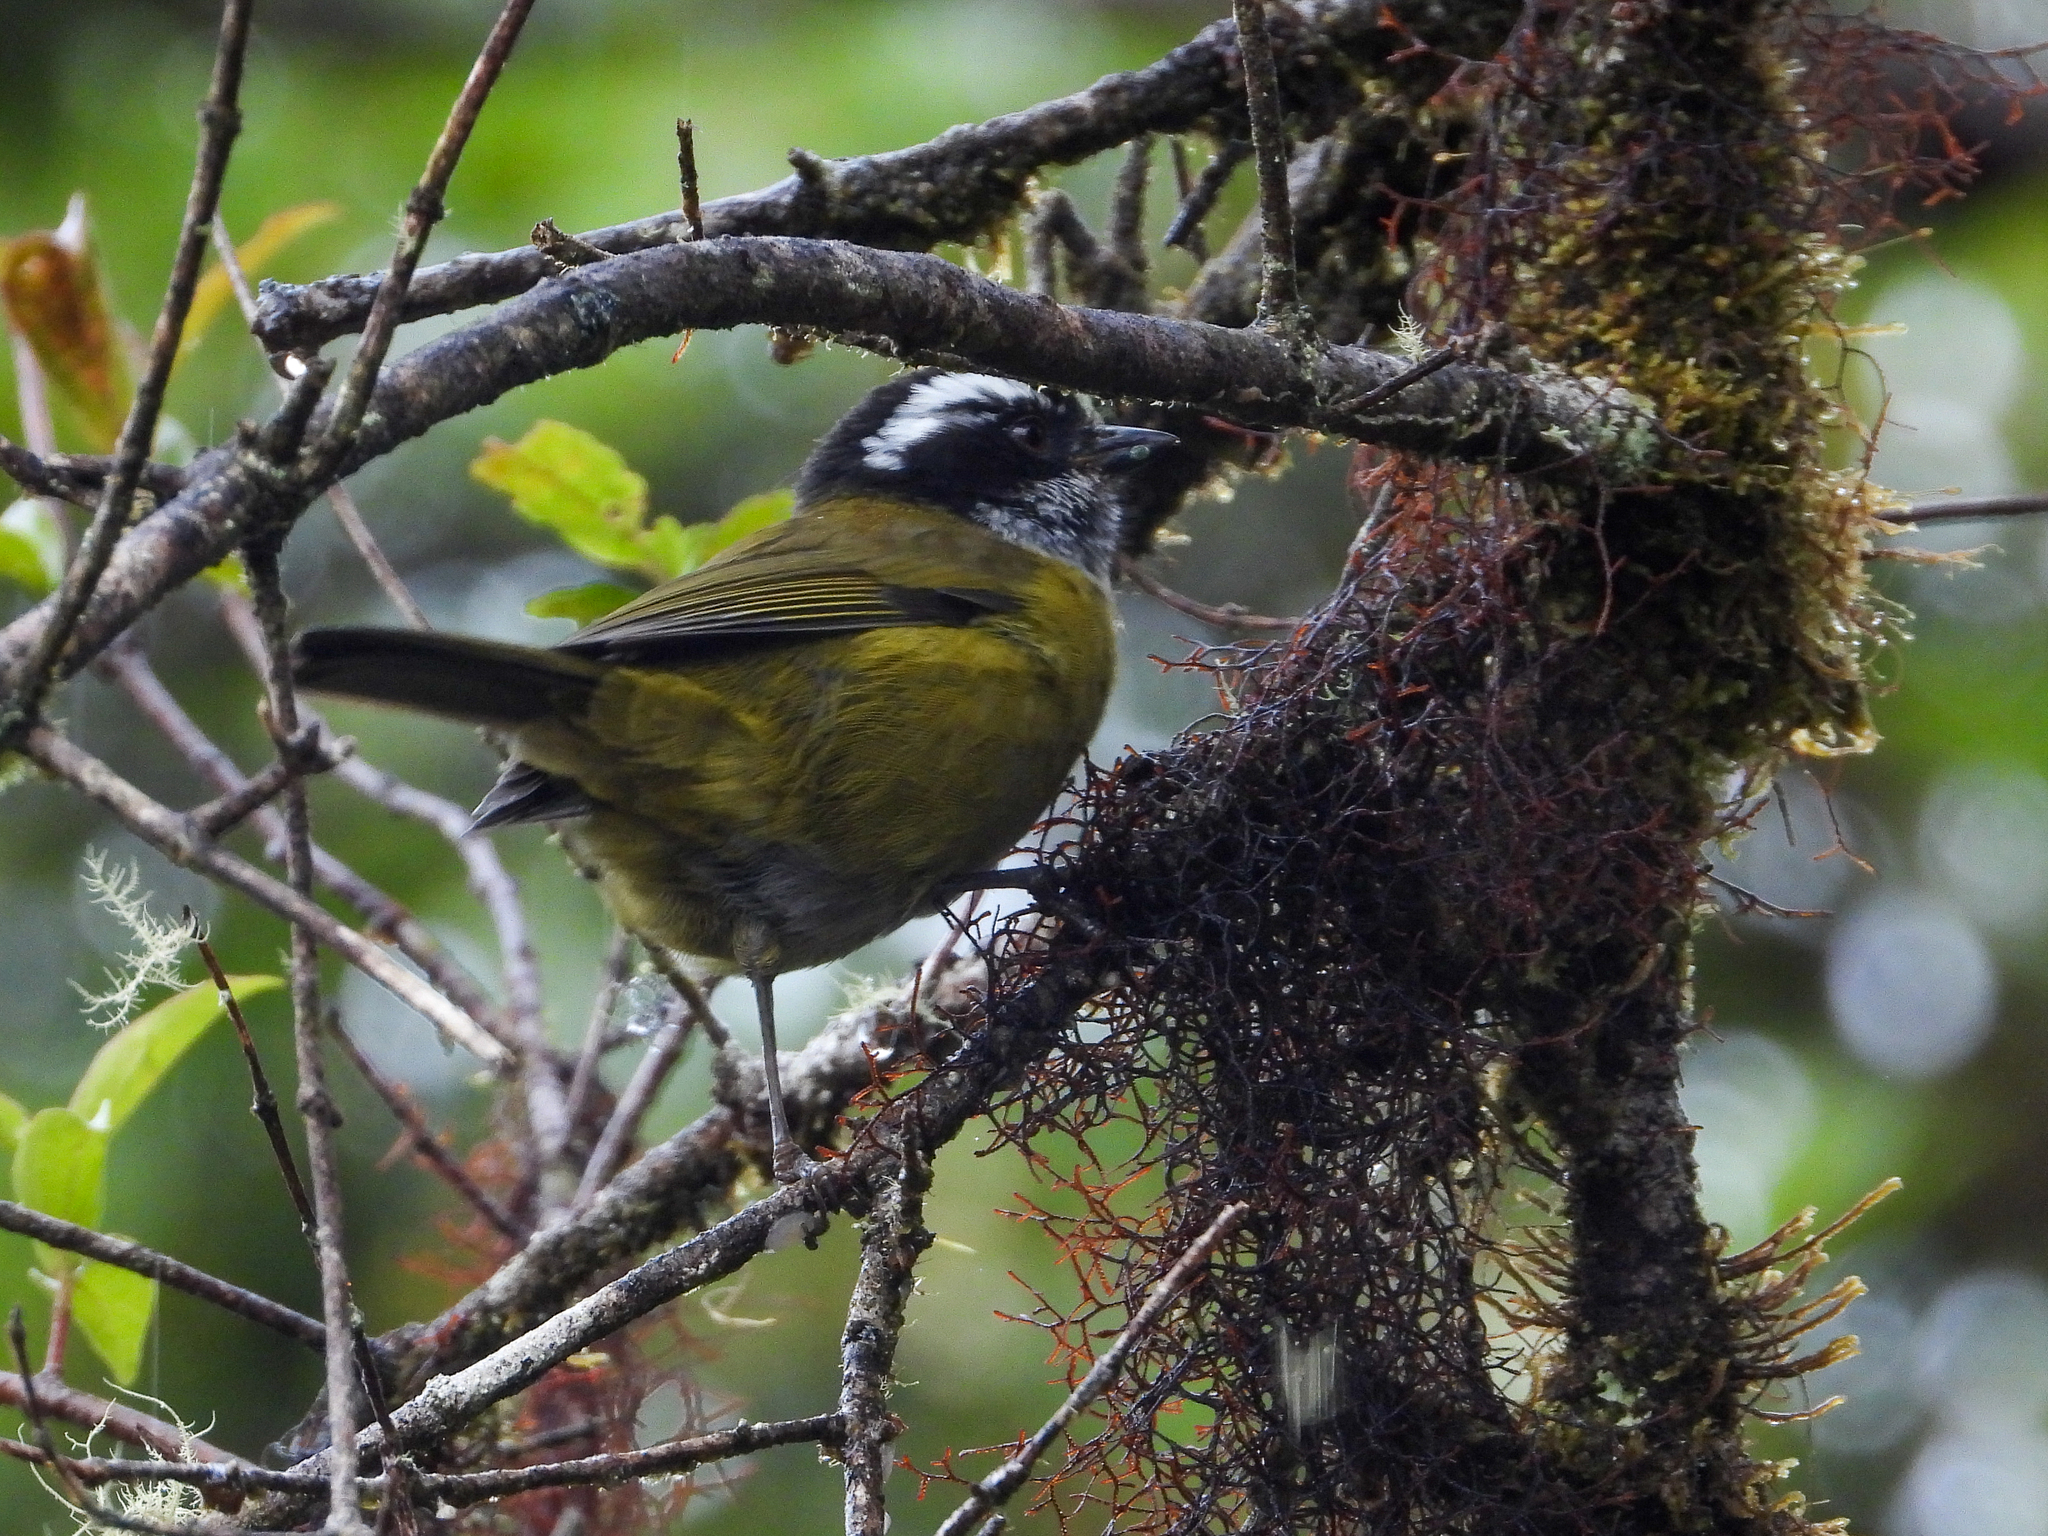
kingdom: Animalia
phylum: Chordata
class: Aves
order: Passeriformes
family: Passerellidae
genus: Chlorospingus
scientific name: Chlorospingus pileatus
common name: Sooty-capped bush-tanager
